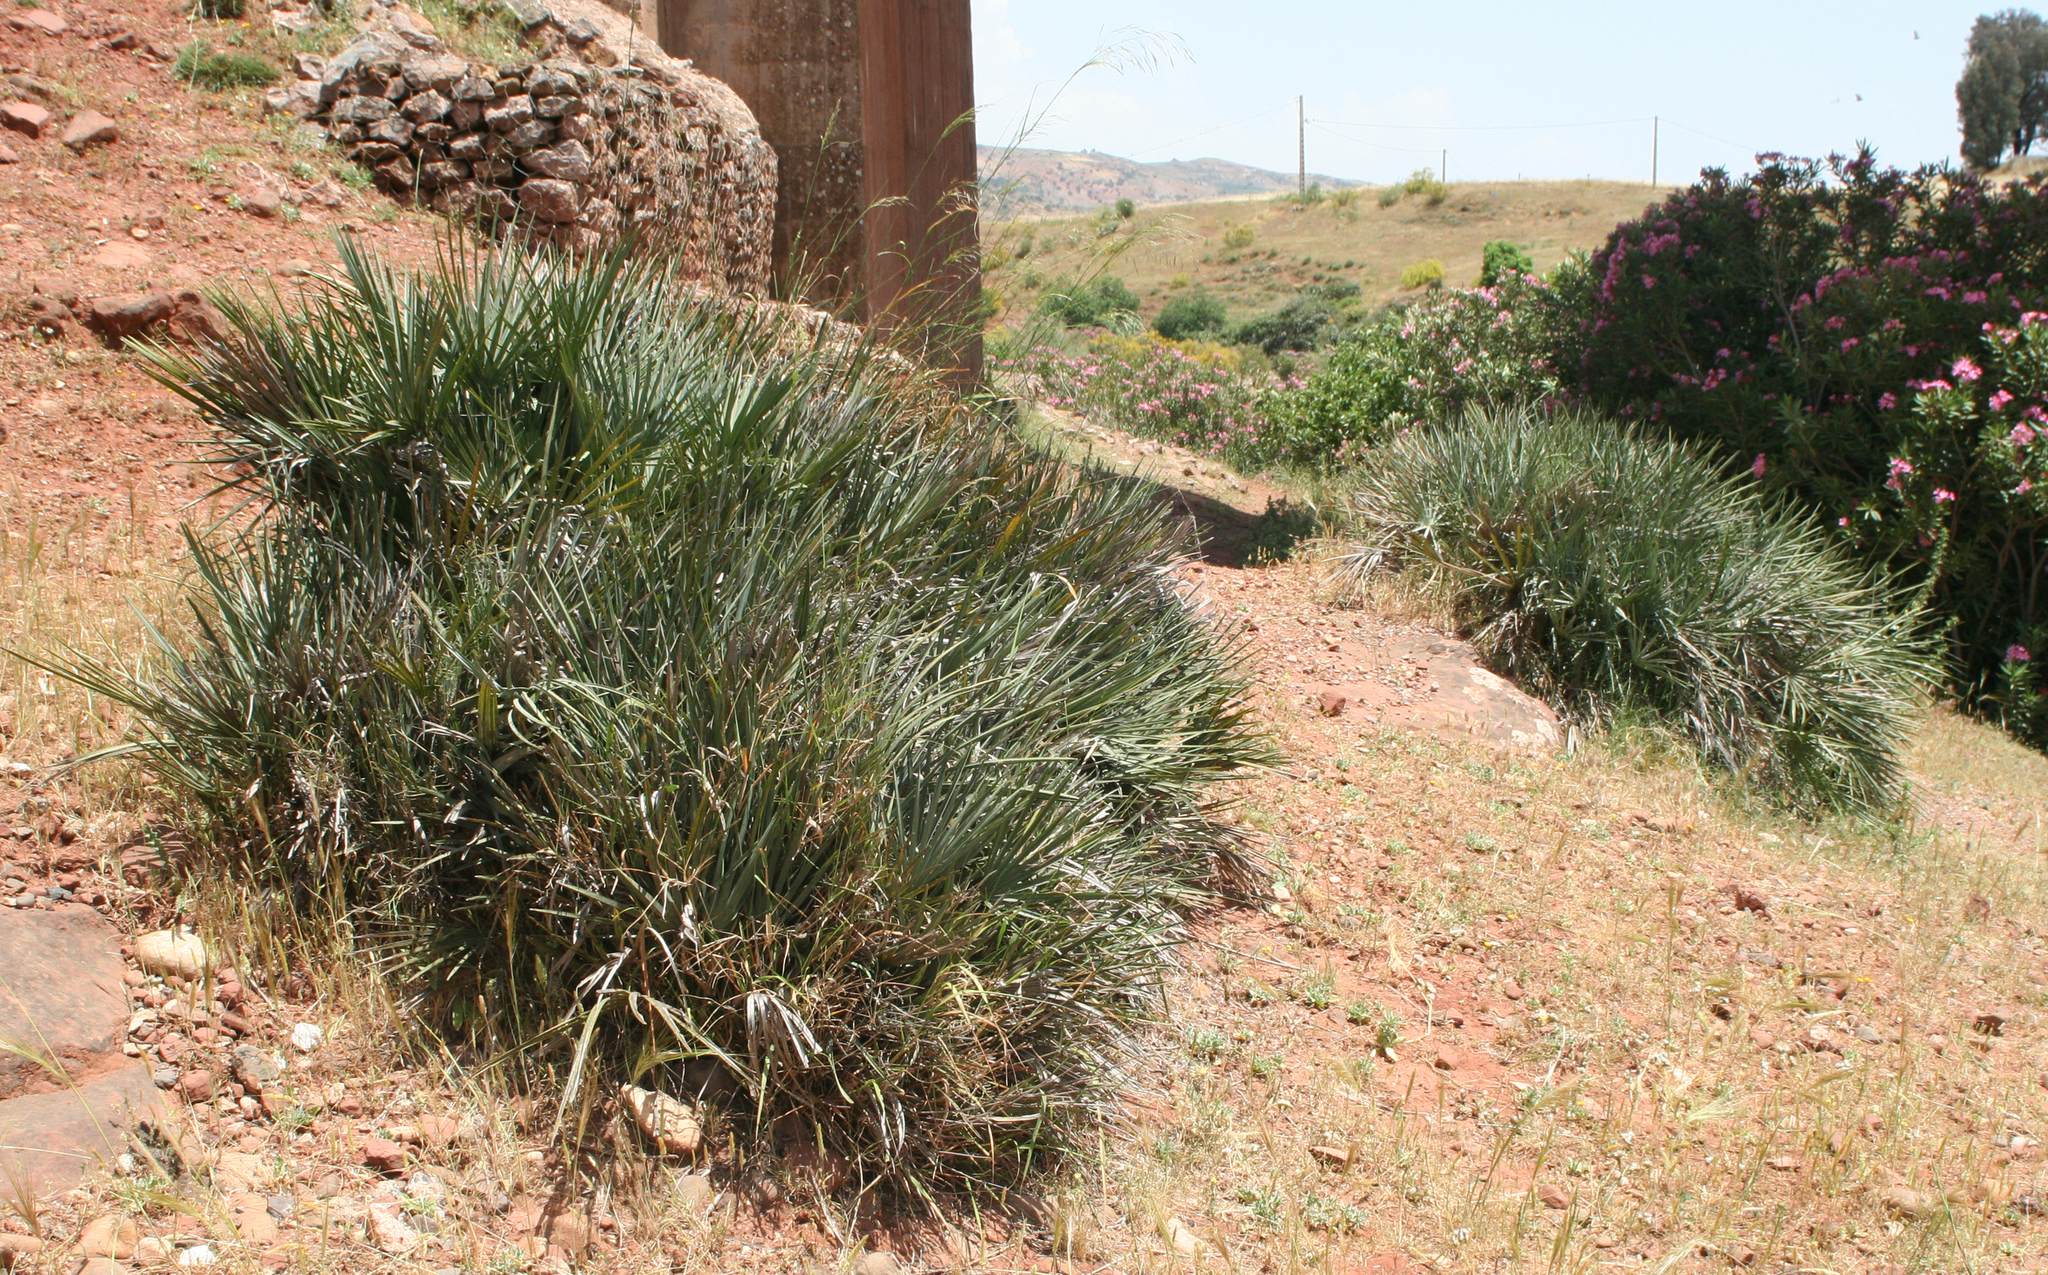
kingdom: Plantae
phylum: Tracheophyta
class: Liliopsida
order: Arecales
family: Arecaceae
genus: Chamaerops
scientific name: Chamaerops humilis
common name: Dwarf fan palm
